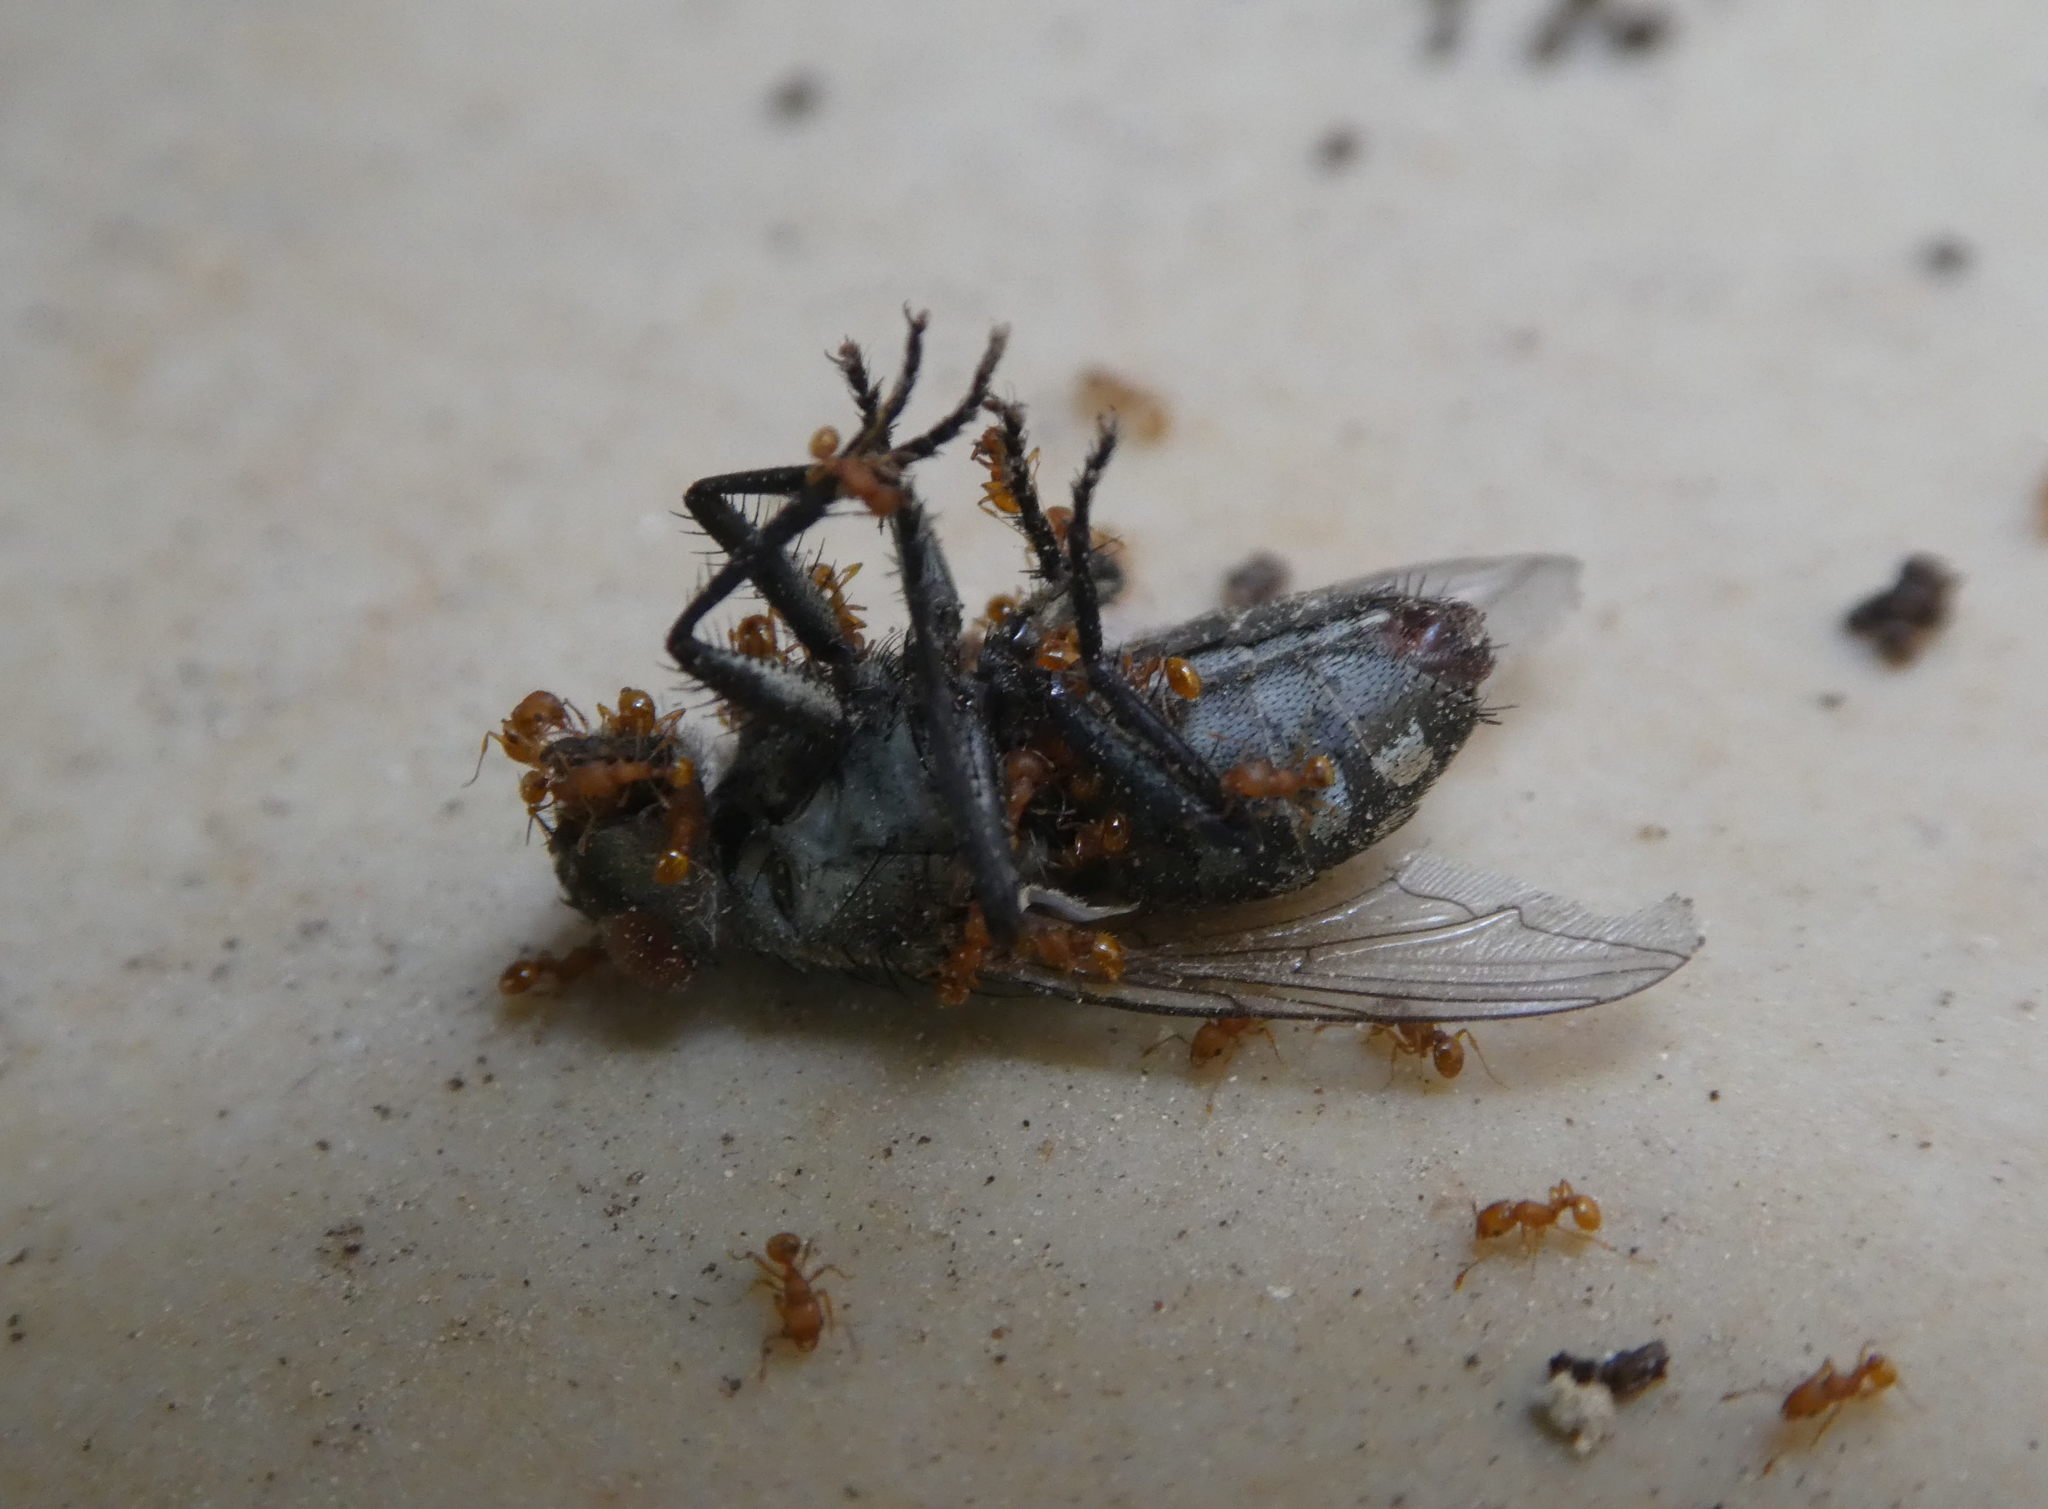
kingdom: Animalia
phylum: Arthropoda
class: Insecta
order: Hymenoptera
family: Formicidae
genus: Wasmannia
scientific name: Wasmannia auropunctata
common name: Little fire ant
